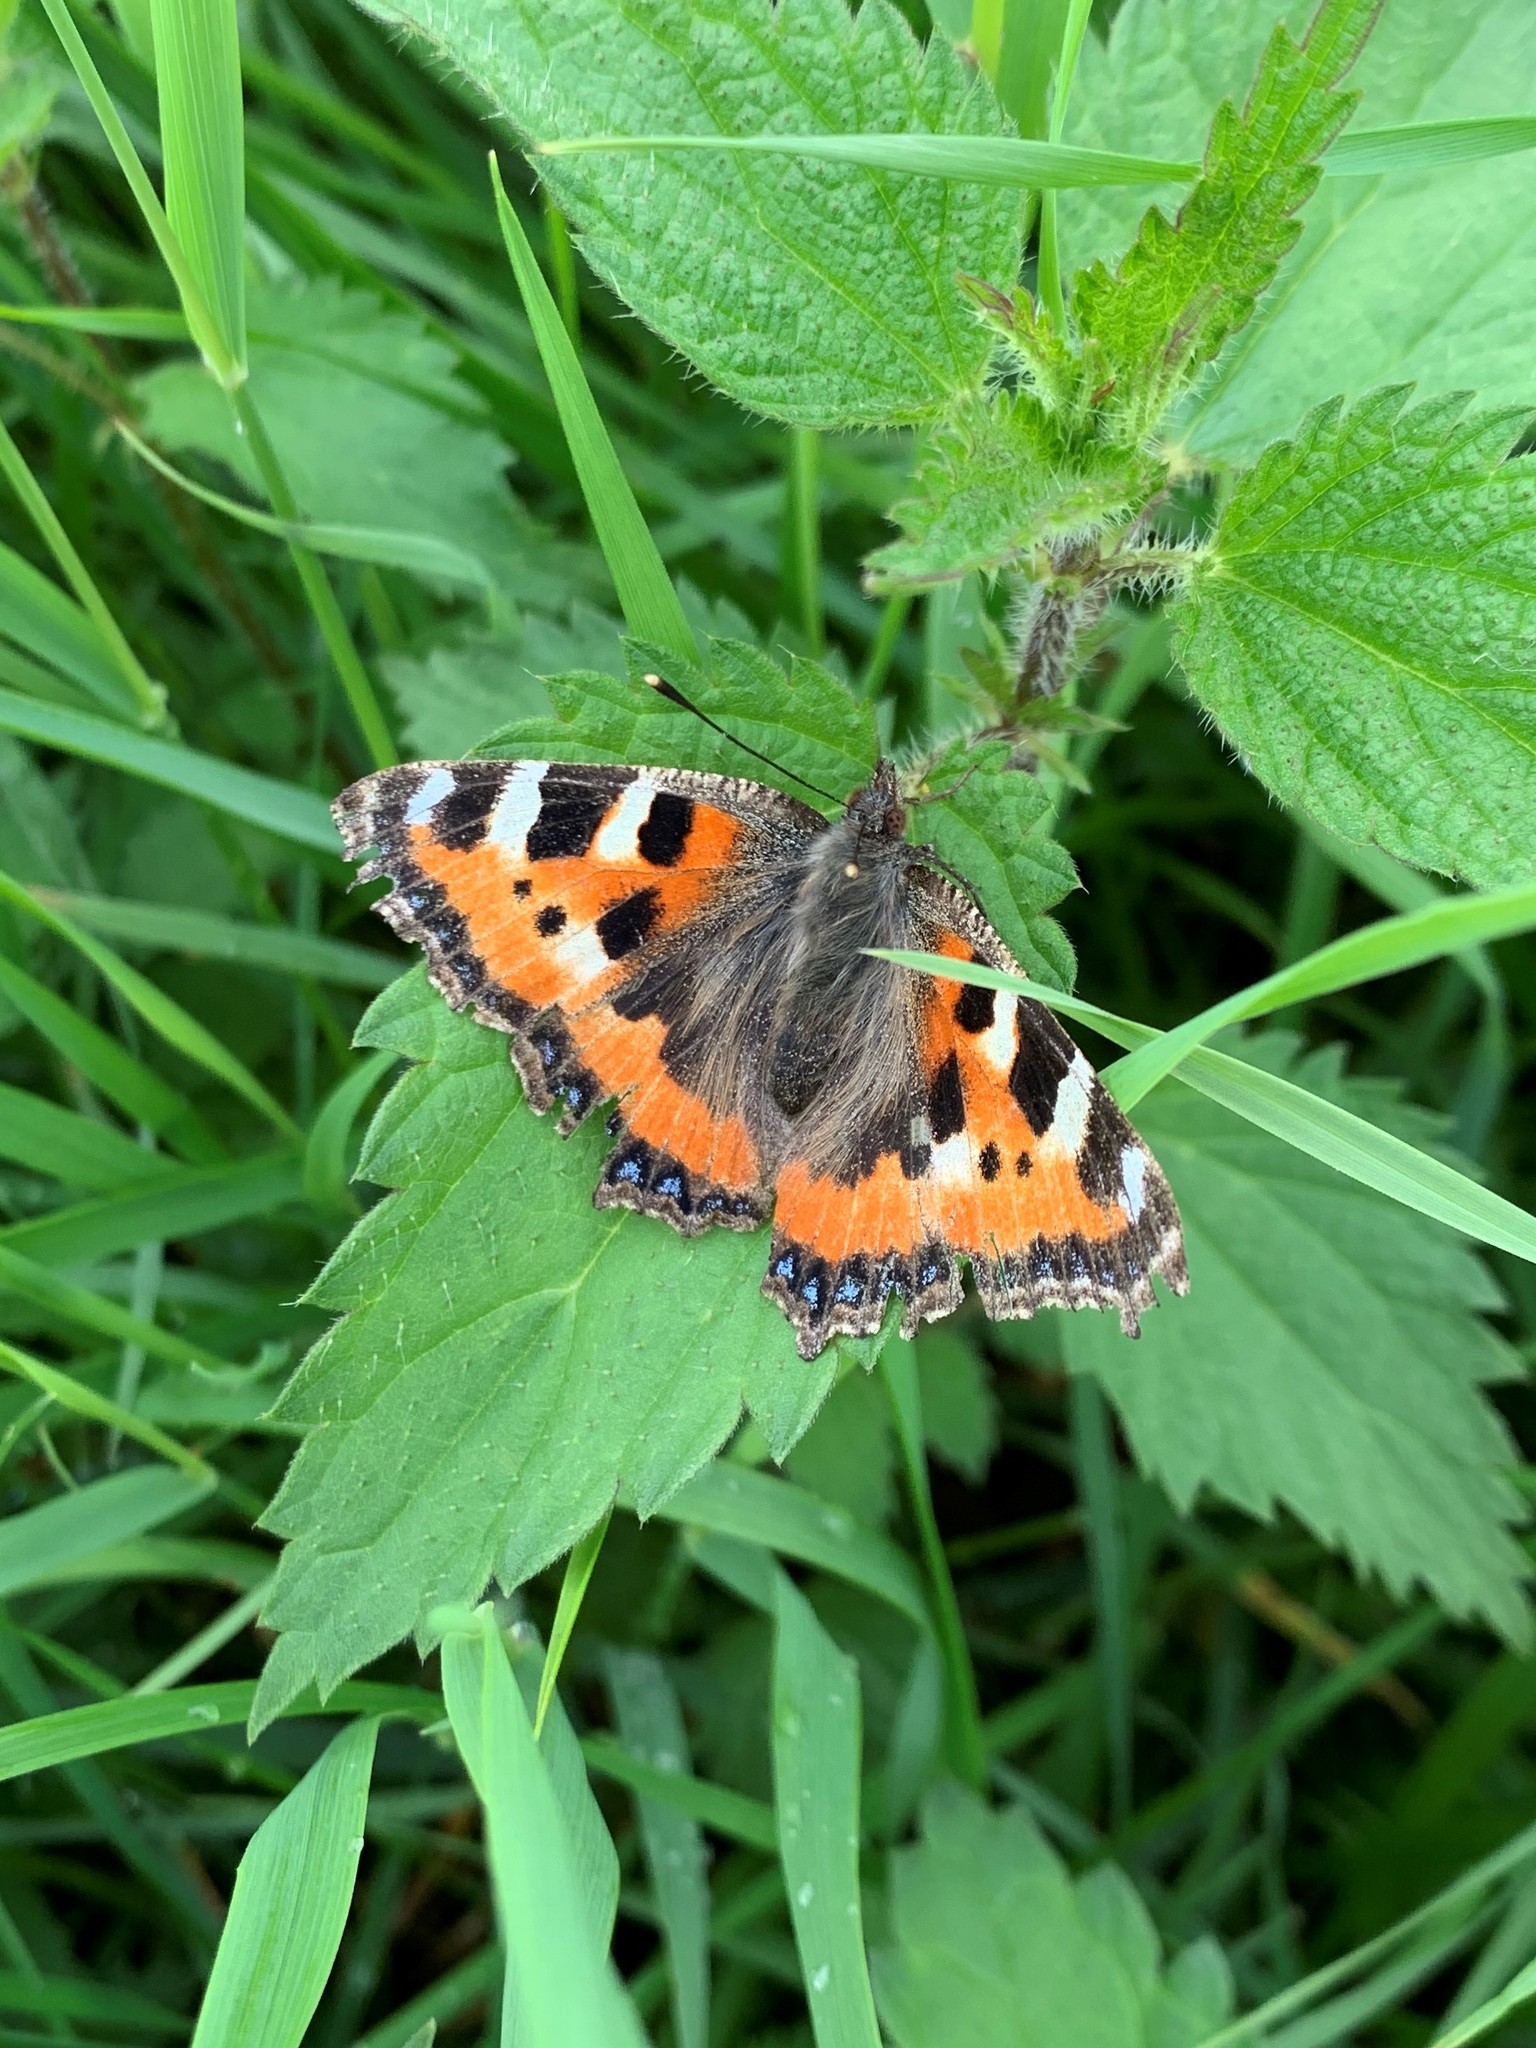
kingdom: Animalia
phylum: Arthropoda
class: Insecta
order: Lepidoptera
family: Nymphalidae
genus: Aglais
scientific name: Aglais urticae
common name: Small tortoiseshell
